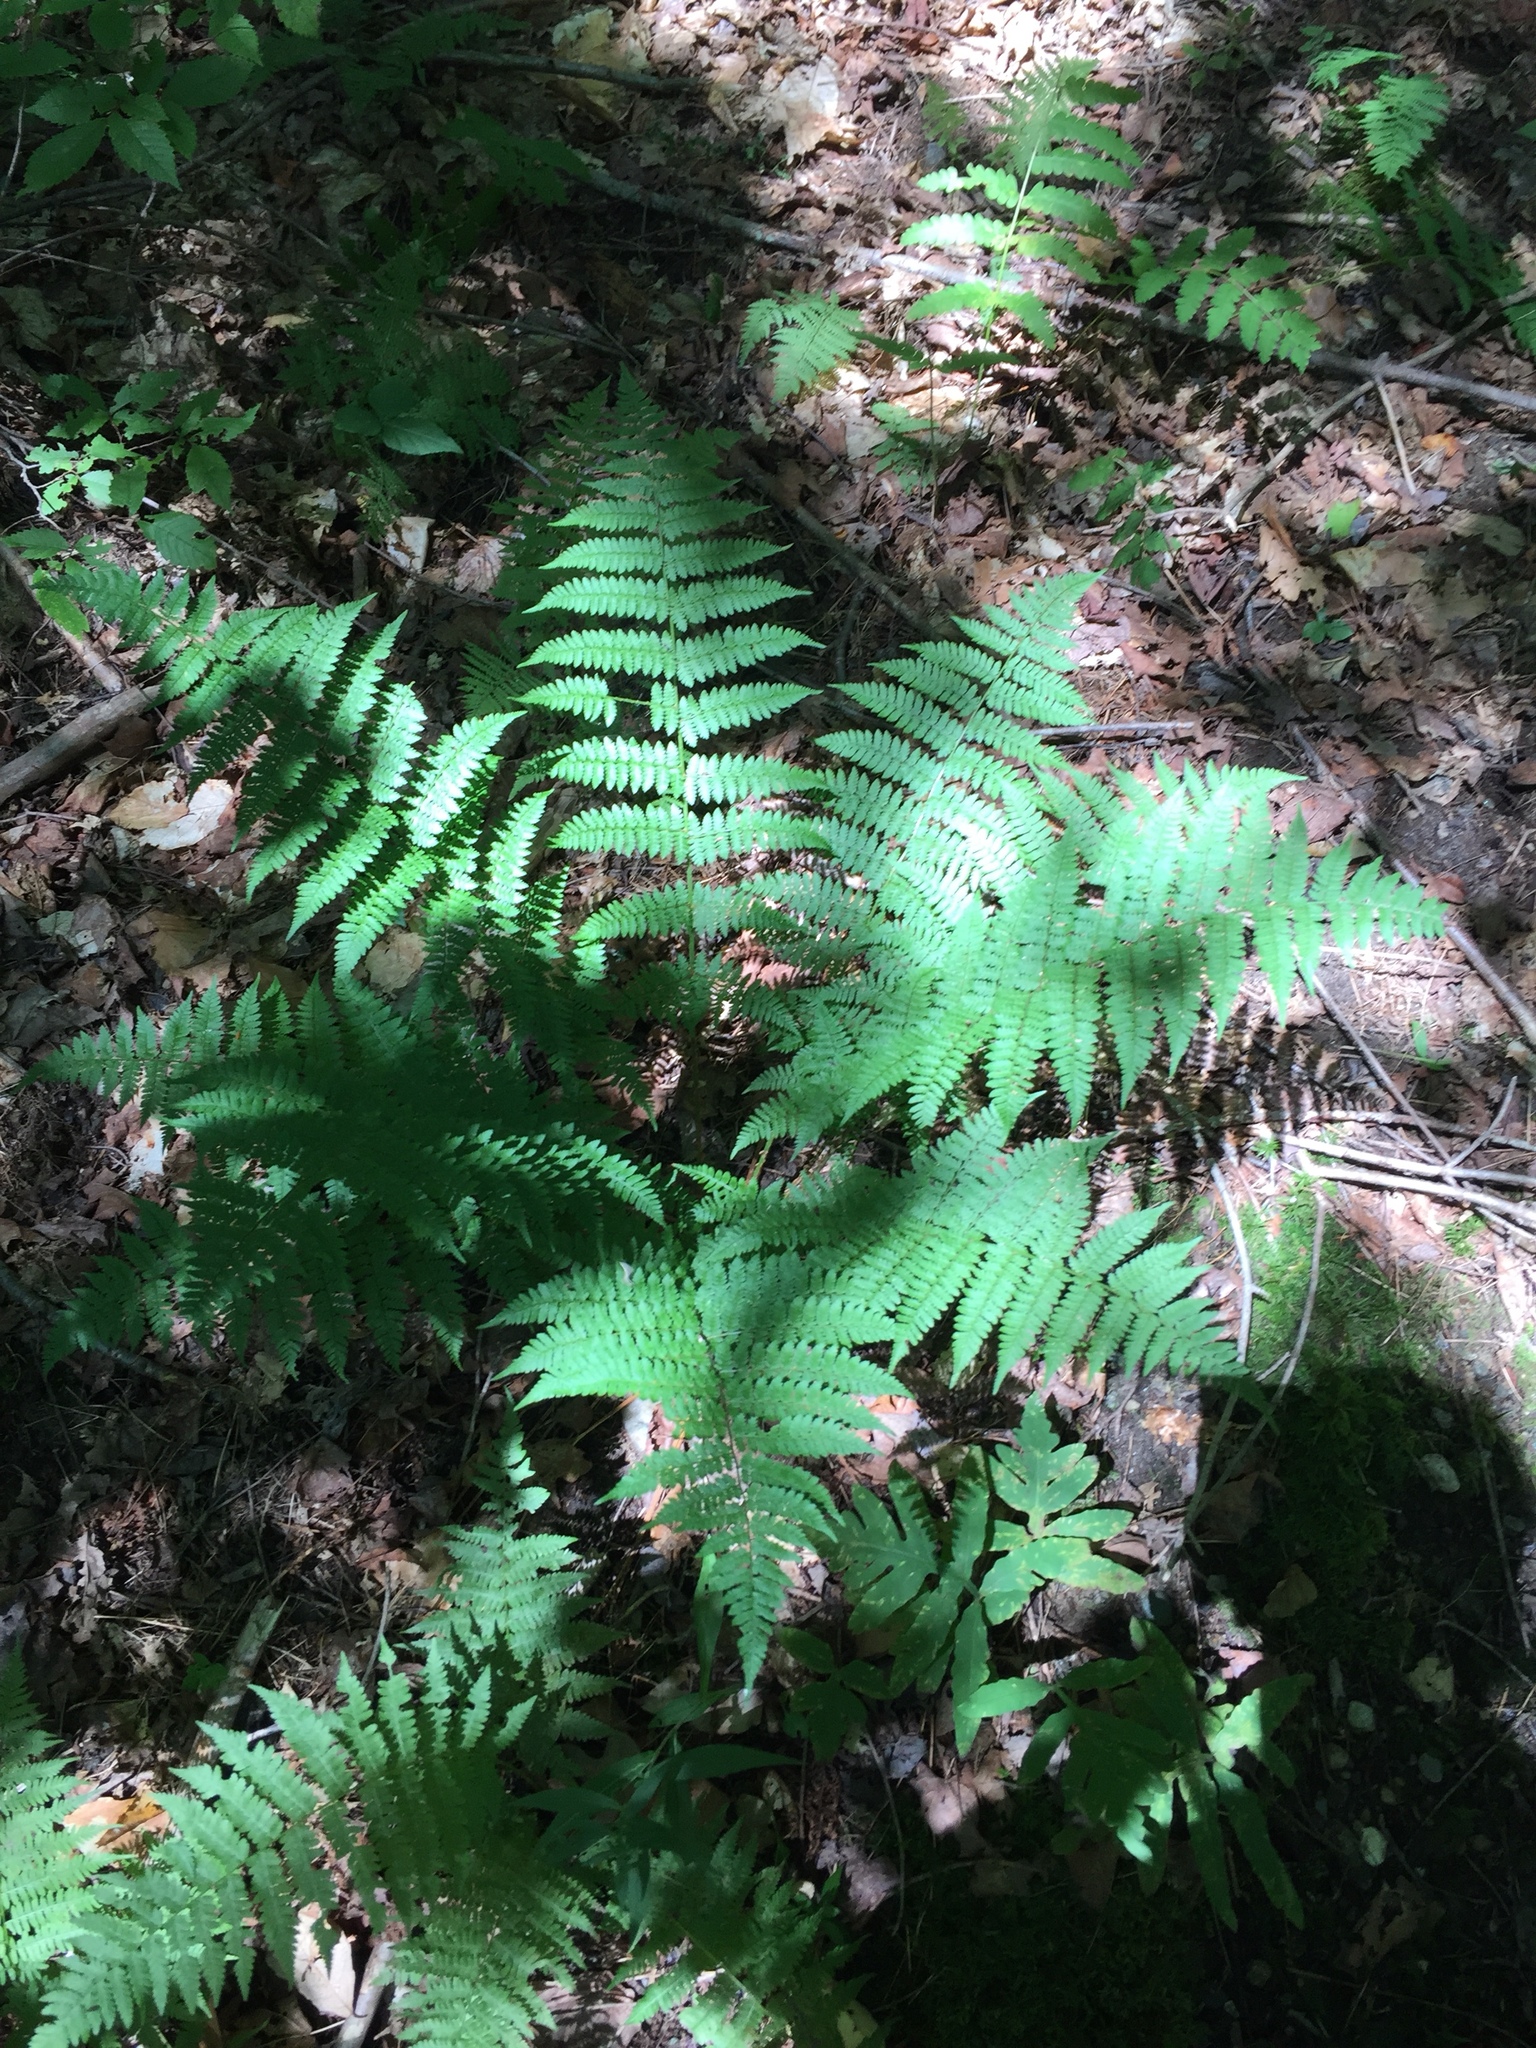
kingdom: Plantae
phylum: Tracheophyta
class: Polypodiopsida
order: Polypodiales
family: Dryopteridaceae
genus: Dryopteris
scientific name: Dryopteris intermedia
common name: Evergreen wood fern
